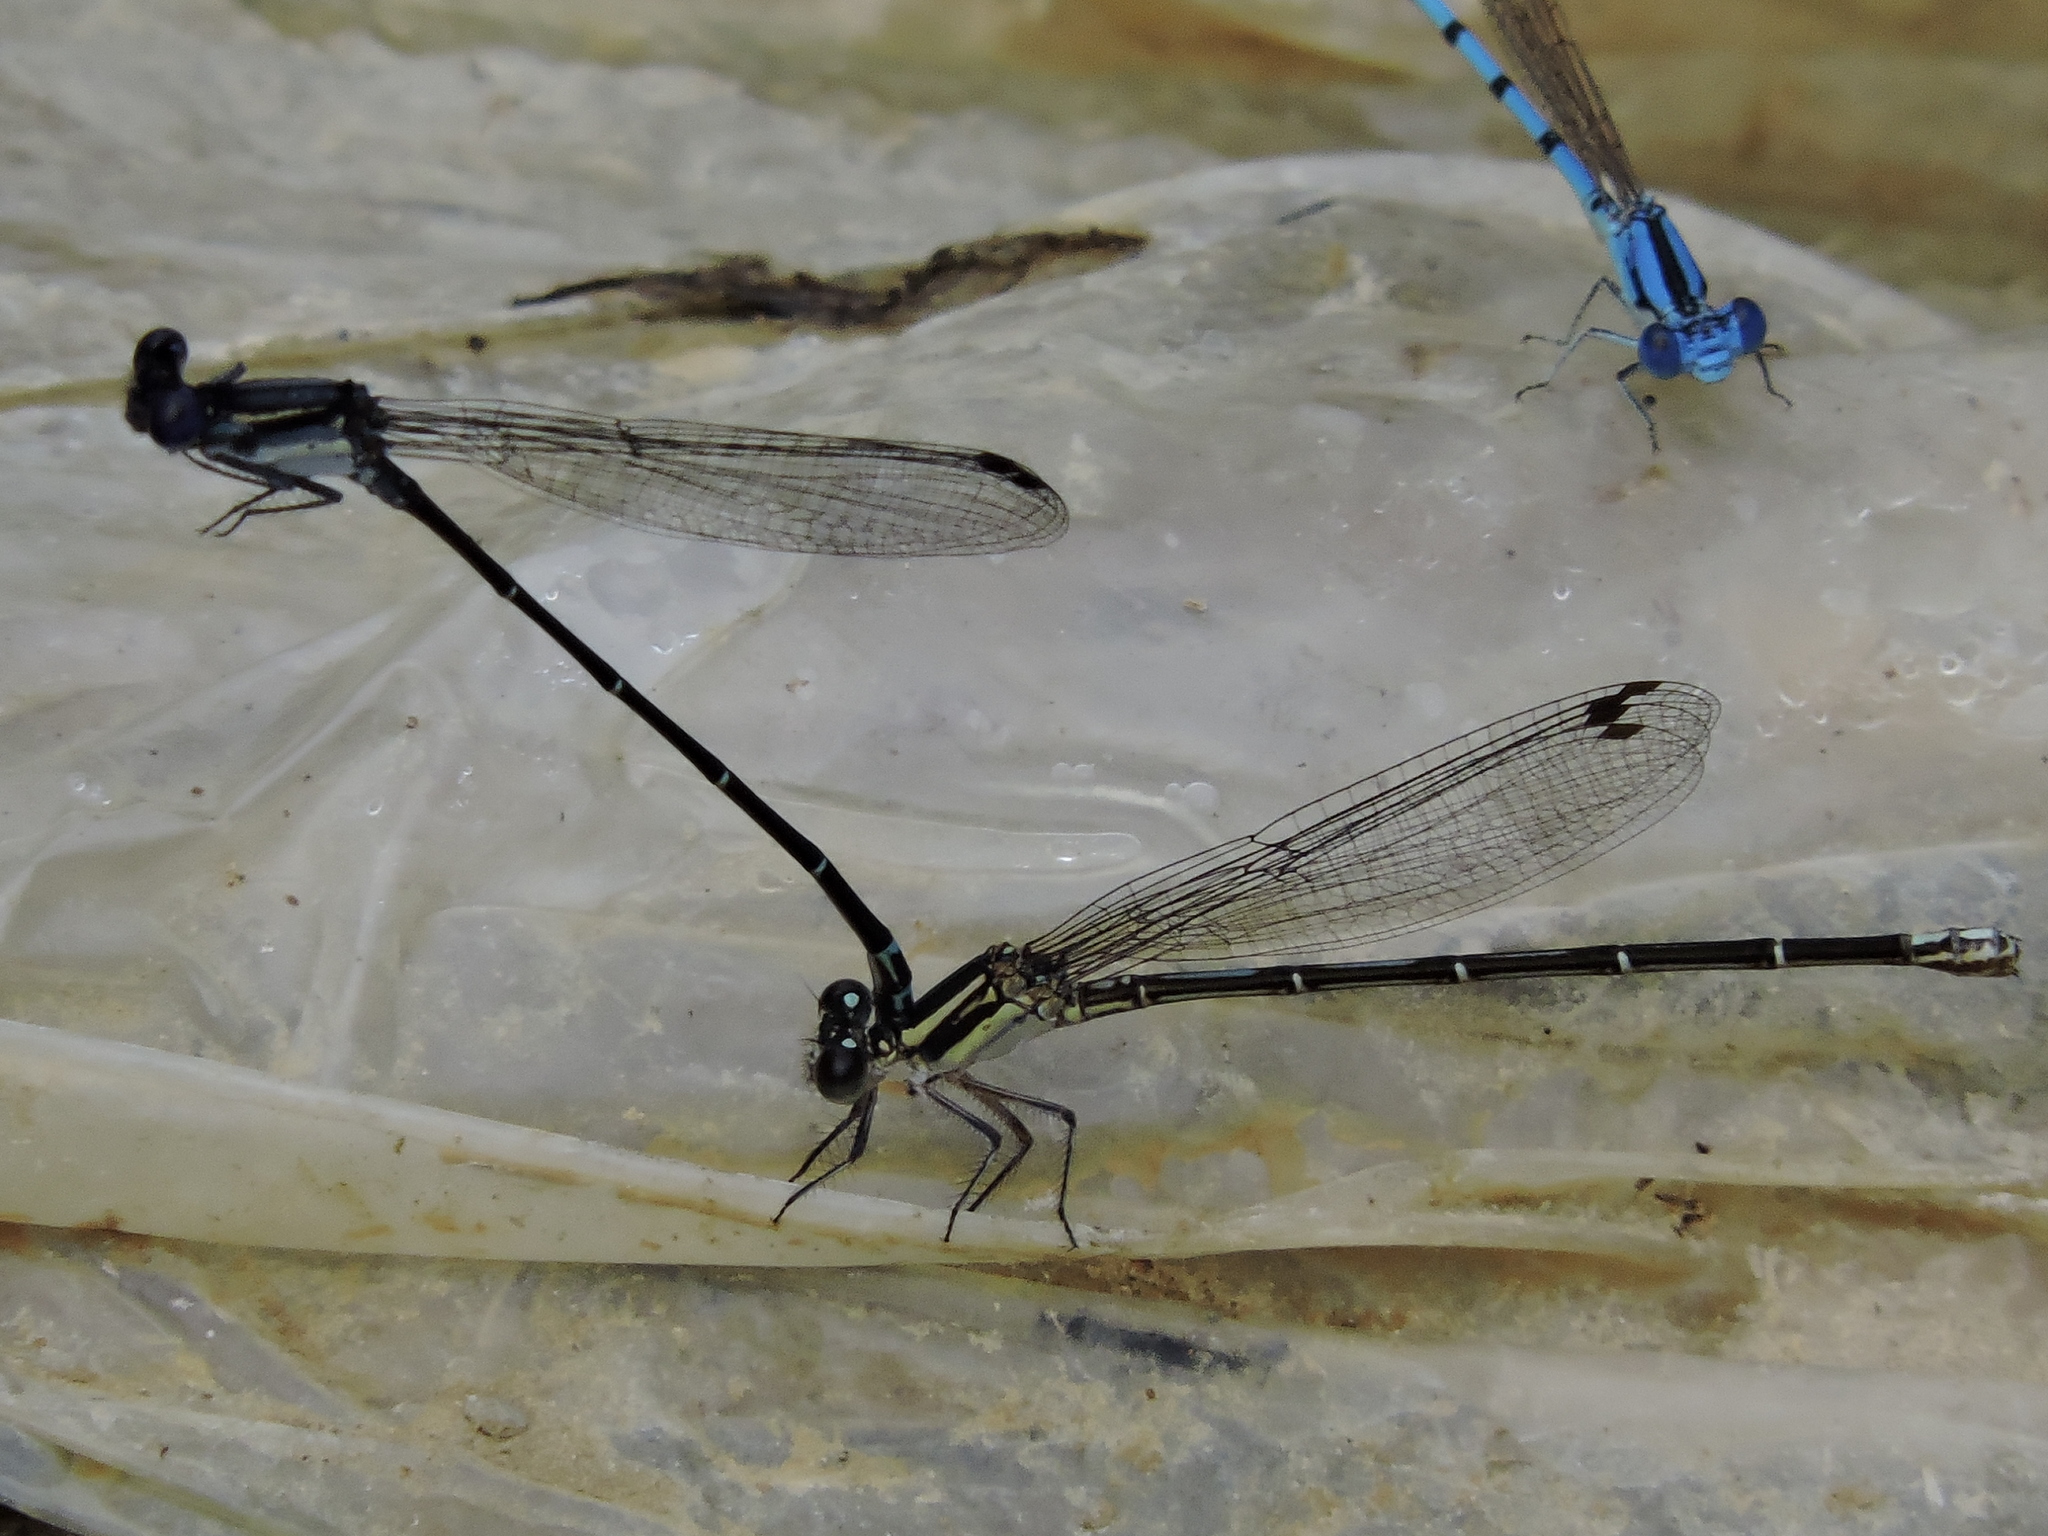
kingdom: Animalia
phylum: Arthropoda
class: Insecta
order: Odonata
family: Coenagrionidae
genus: Argia
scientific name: Argia translata
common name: Dusky dancer
